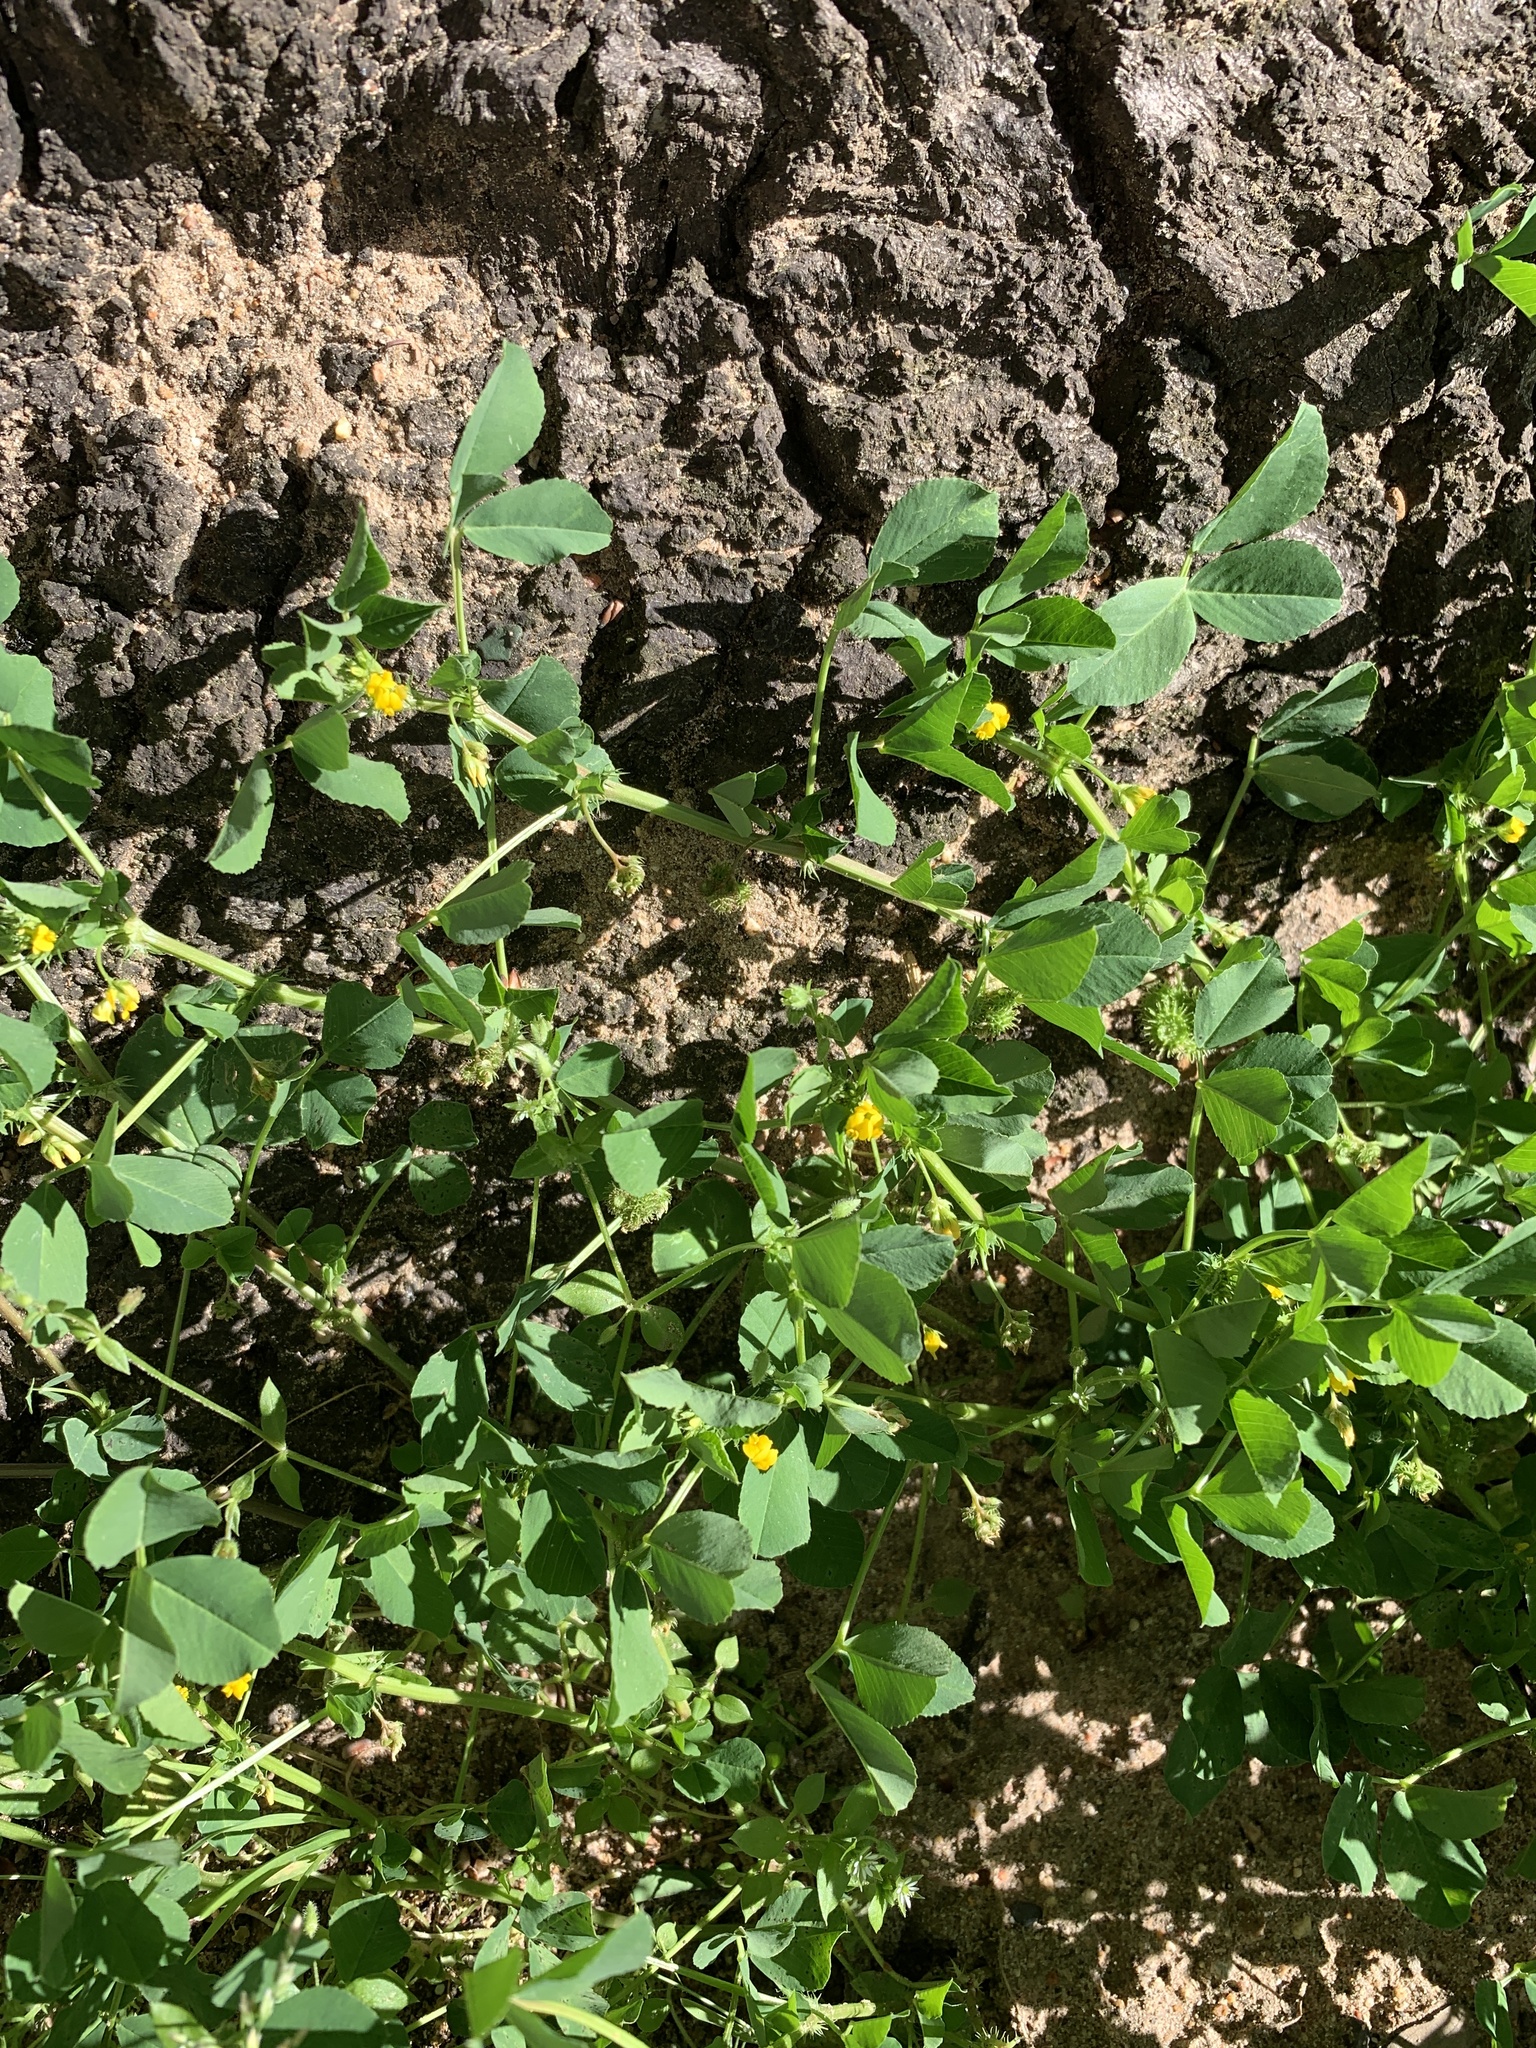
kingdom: Plantae
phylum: Tracheophyta
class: Magnoliopsida
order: Fabales
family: Fabaceae
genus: Medicago
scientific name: Medicago polymorpha
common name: Burclover
